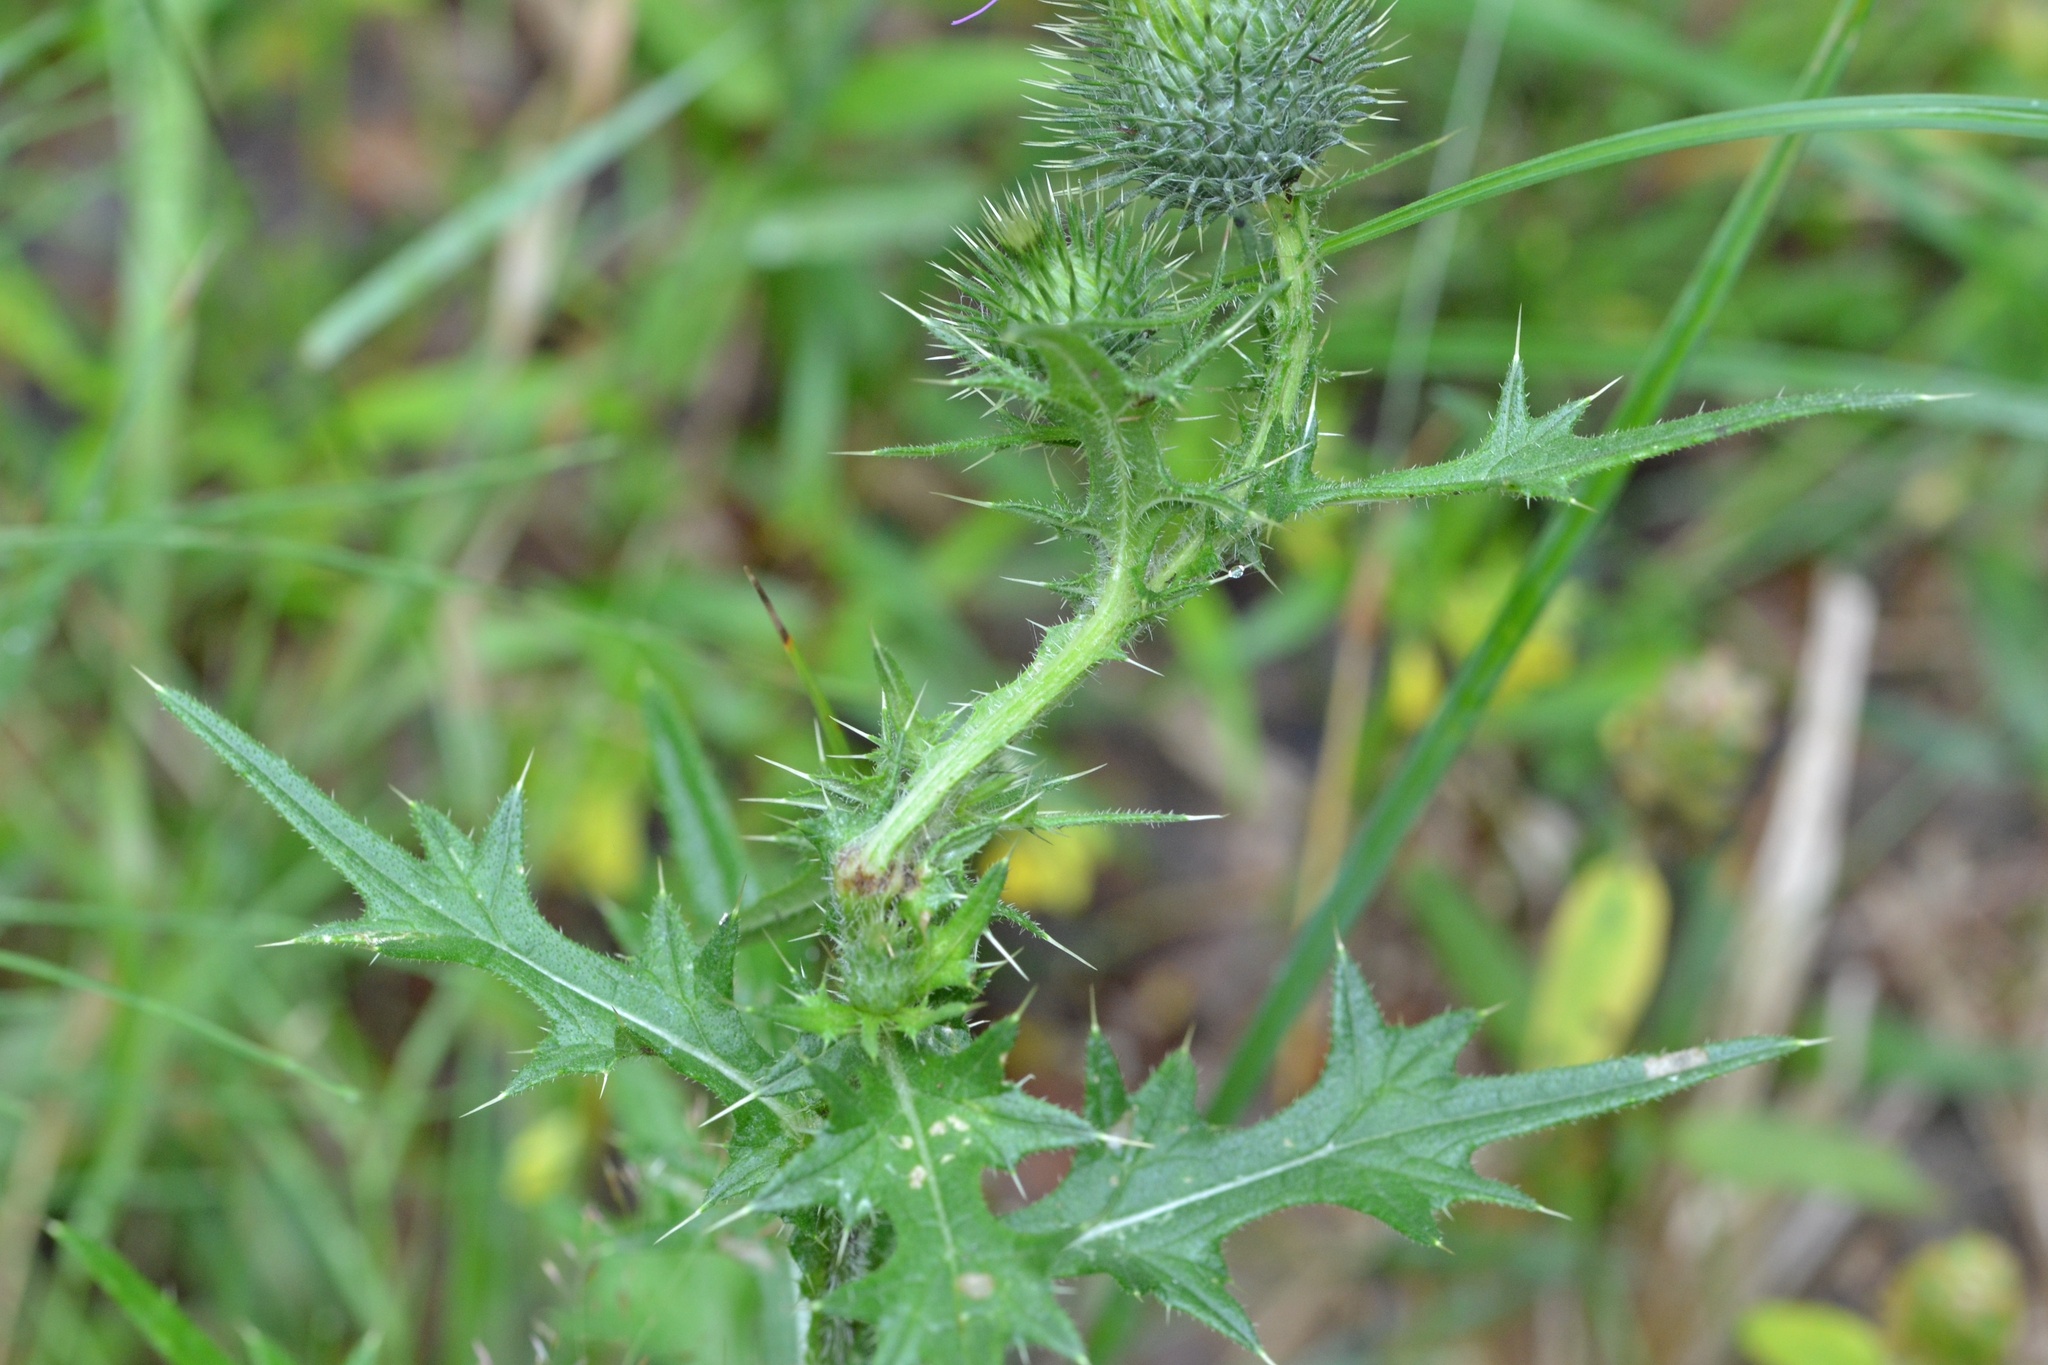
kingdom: Plantae
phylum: Tracheophyta
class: Magnoliopsida
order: Asterales
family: Asteraceae
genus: Cirsium
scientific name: Cirsium vulgare
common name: Bull thistle
